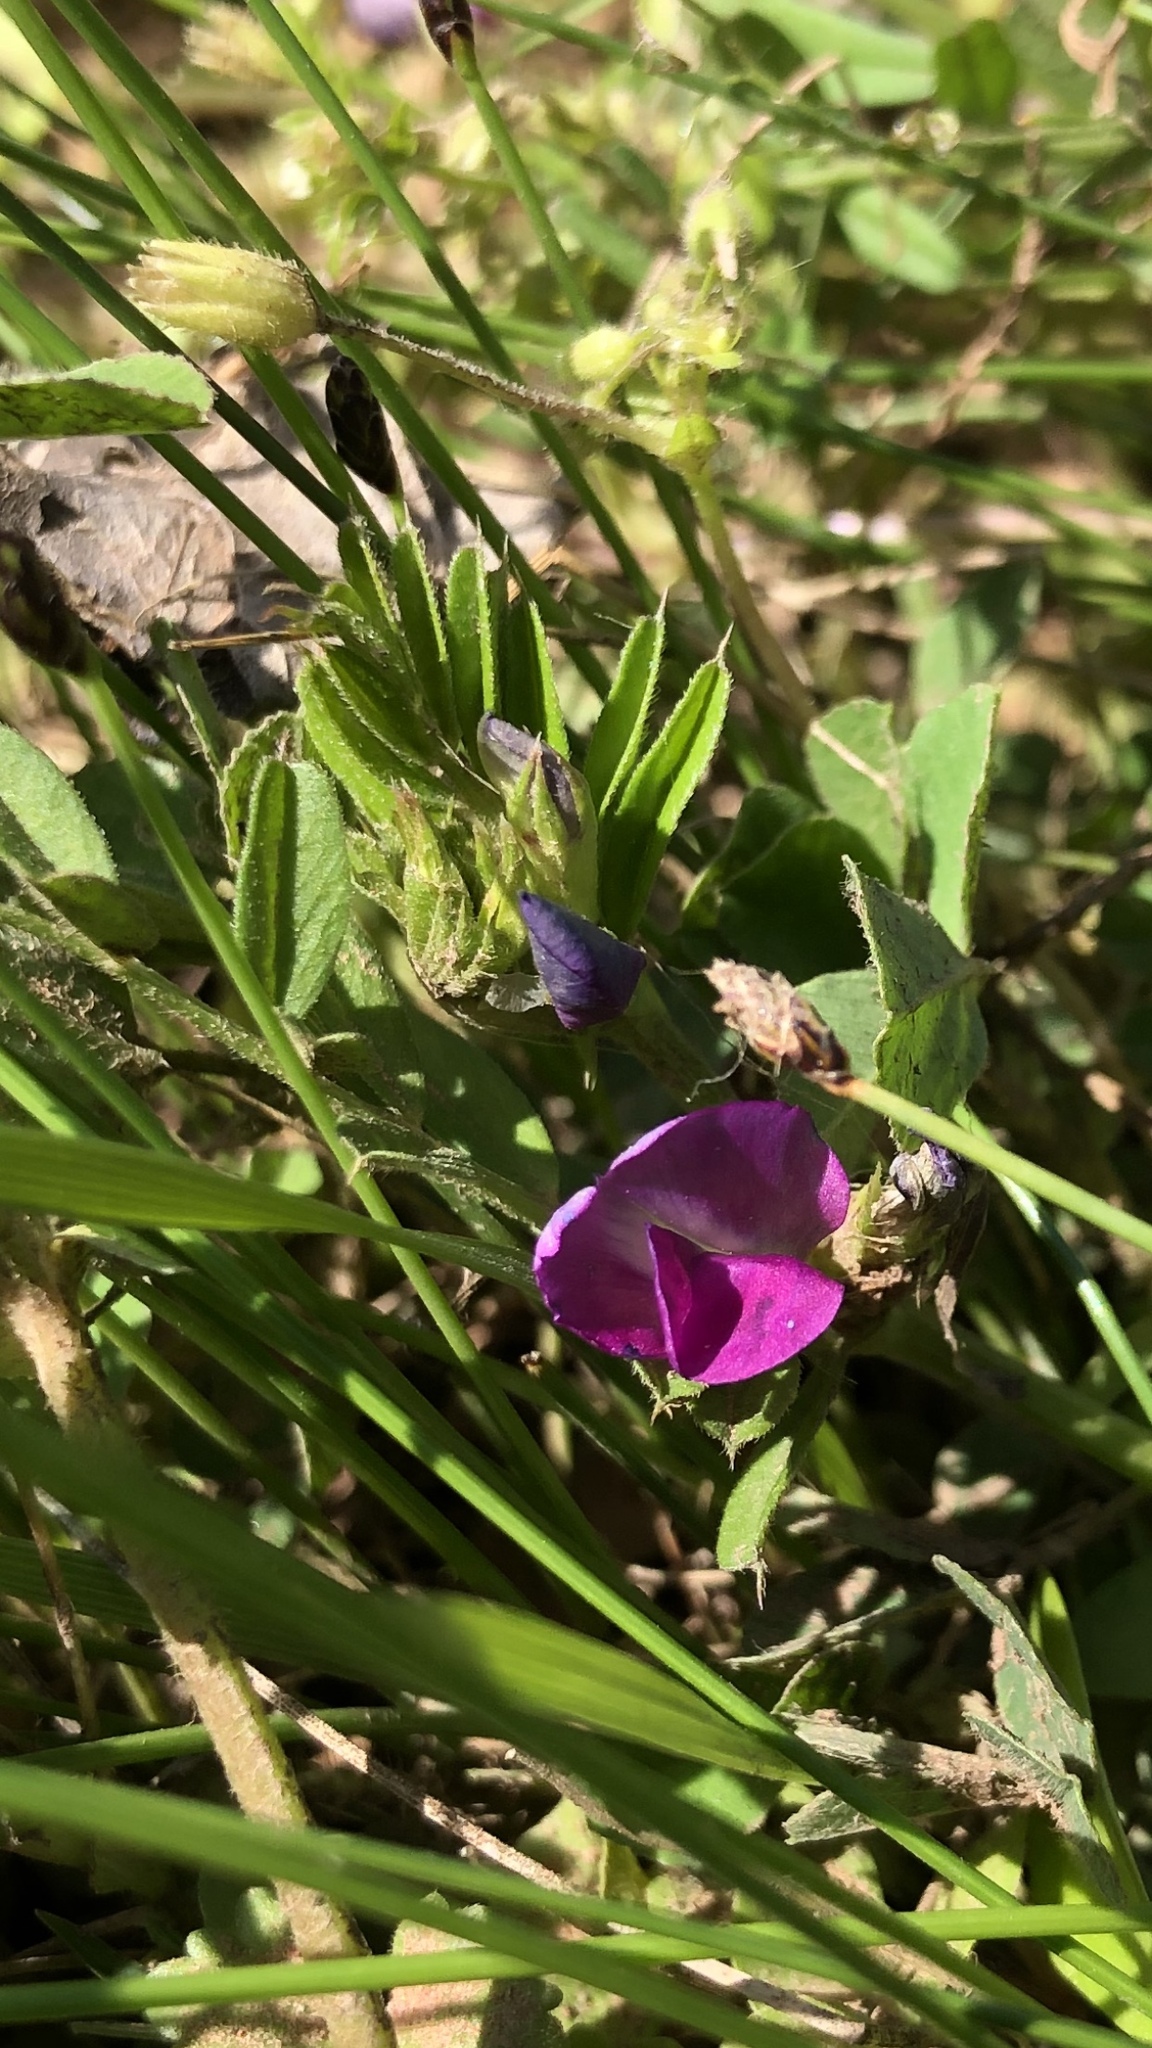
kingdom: Plantae
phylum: Tracheophyta
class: Magnoliopsida
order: Fabales
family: Fabaceae
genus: Vicia
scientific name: Vicia sativa
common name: Garden vetch
